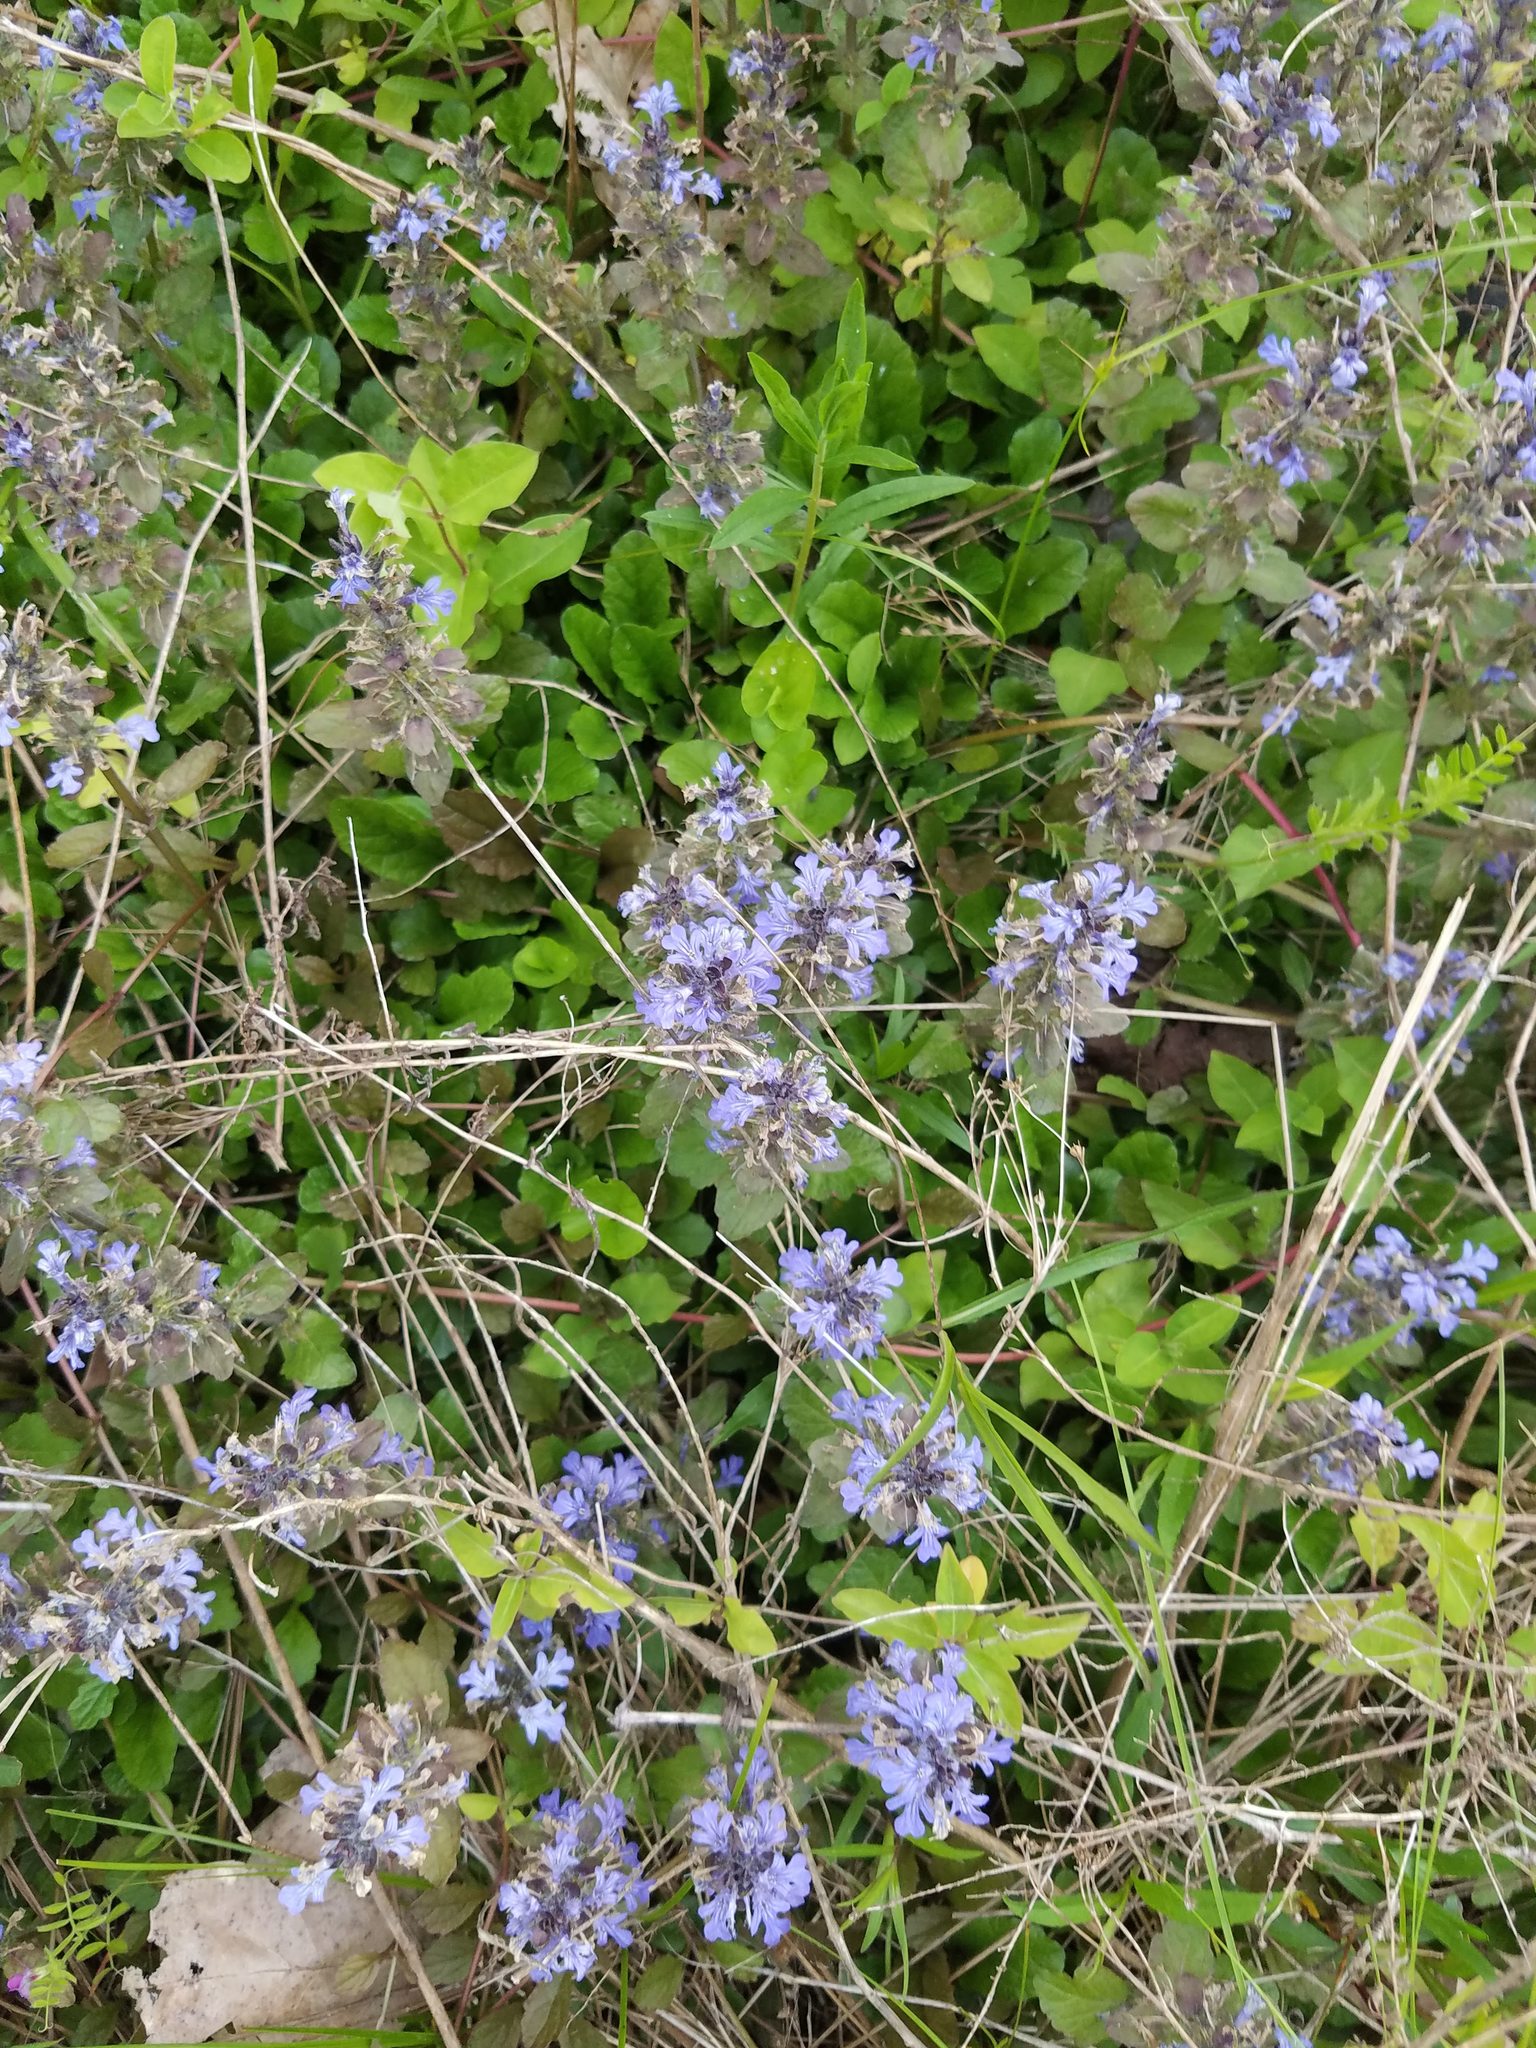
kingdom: Plantae
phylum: Tracheophyta
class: Magnoliopsida
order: Lamiales
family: Lamiaceae
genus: Ajuga
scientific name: Ajuga reptans
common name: Bugle
